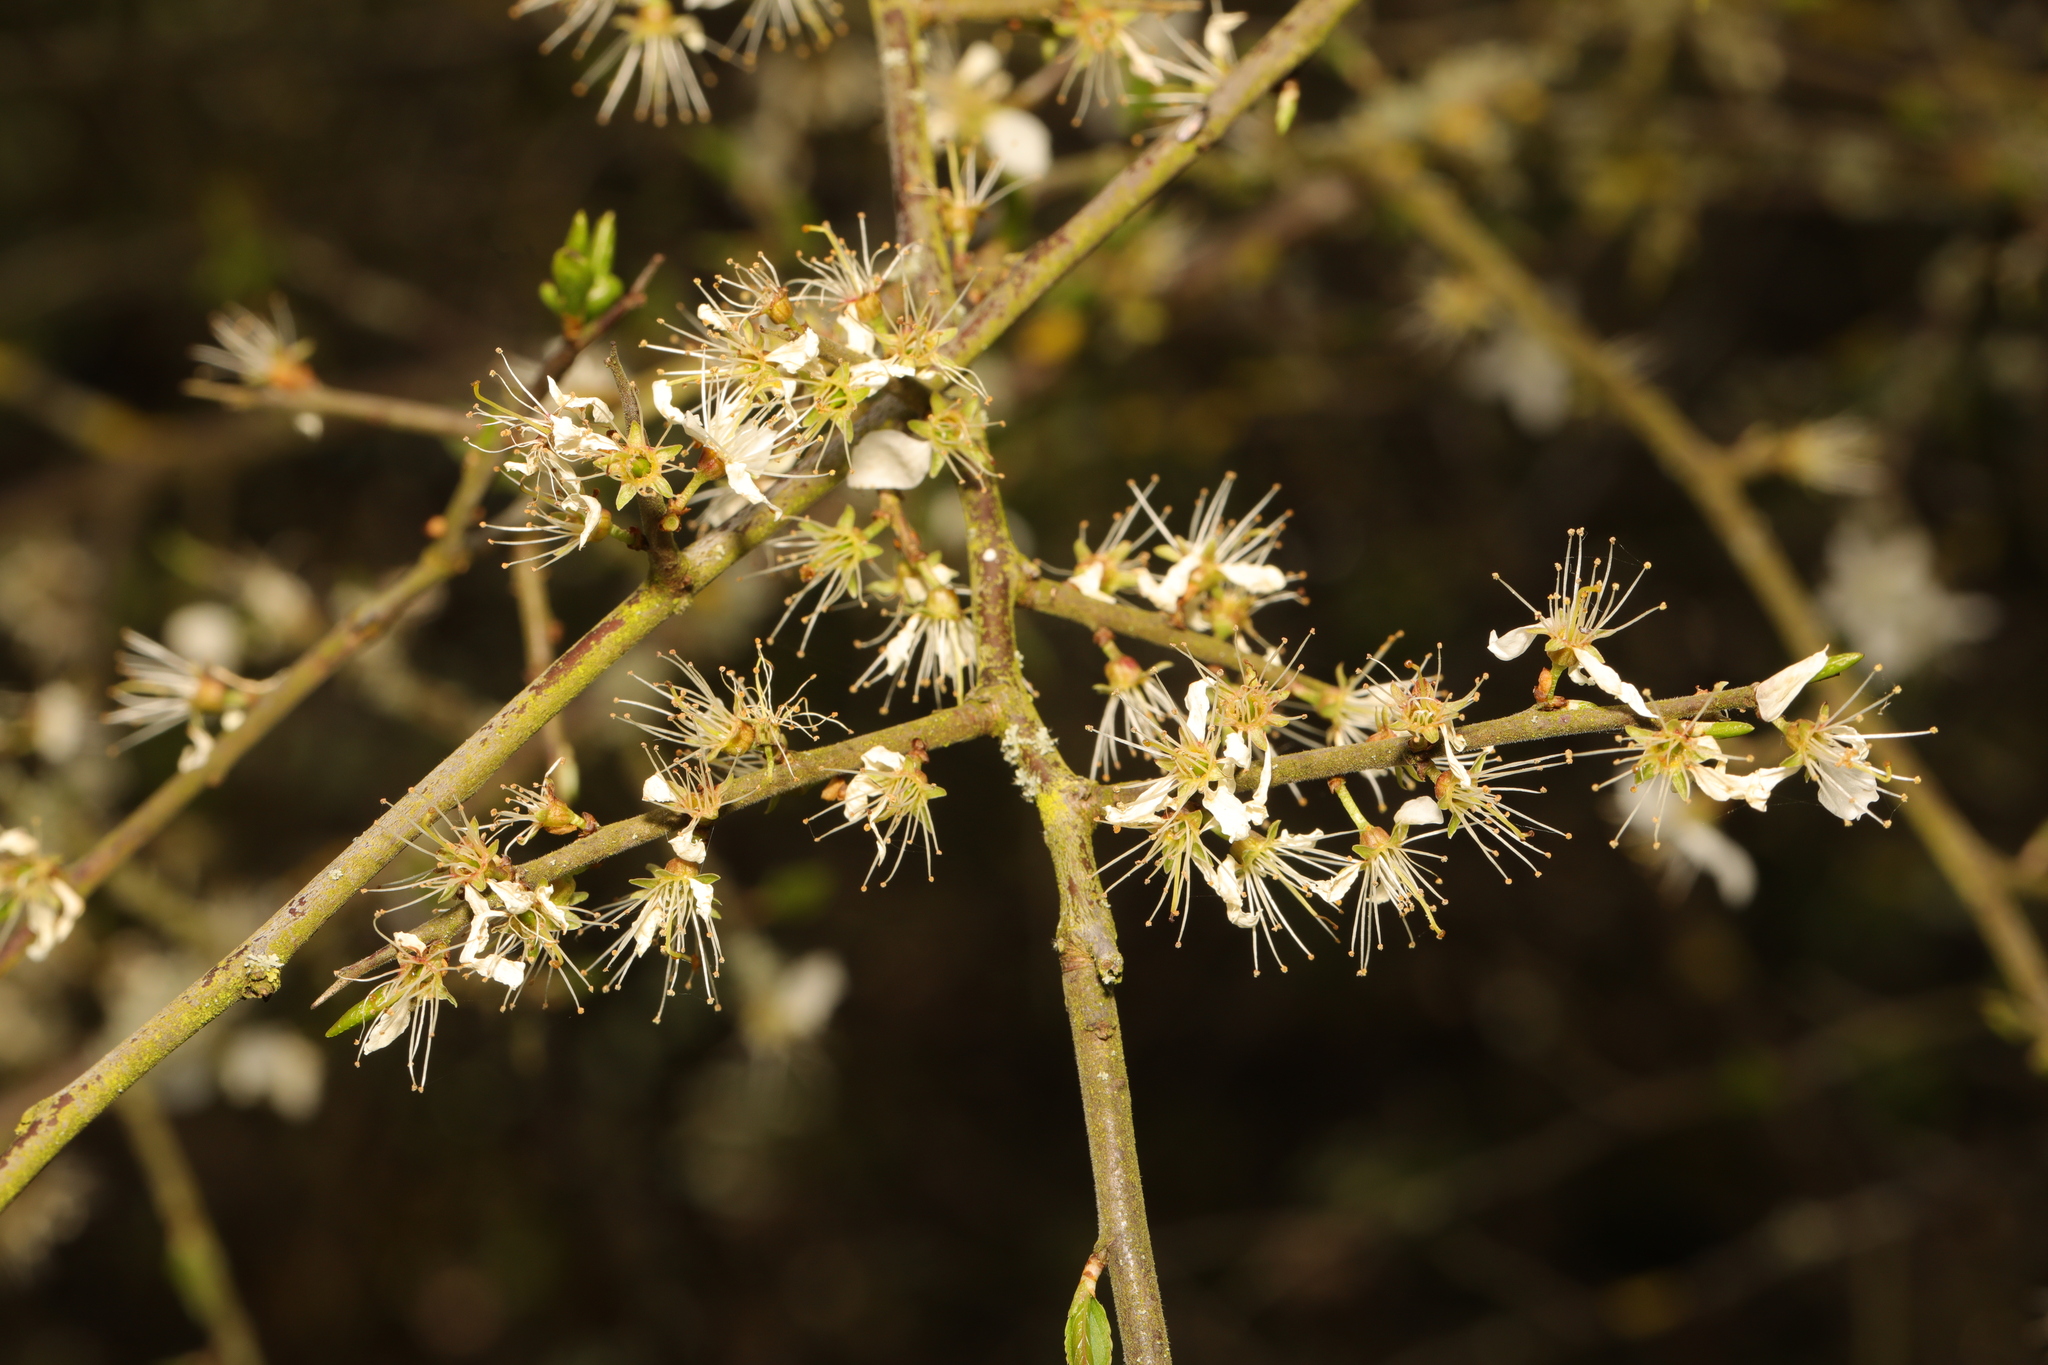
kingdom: Plantae
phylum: Tracheophyta
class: Magnoliopsida
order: Rosales
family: Rosaceae
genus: Prunus
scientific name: Prunus spinosa
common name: Blackthorn
